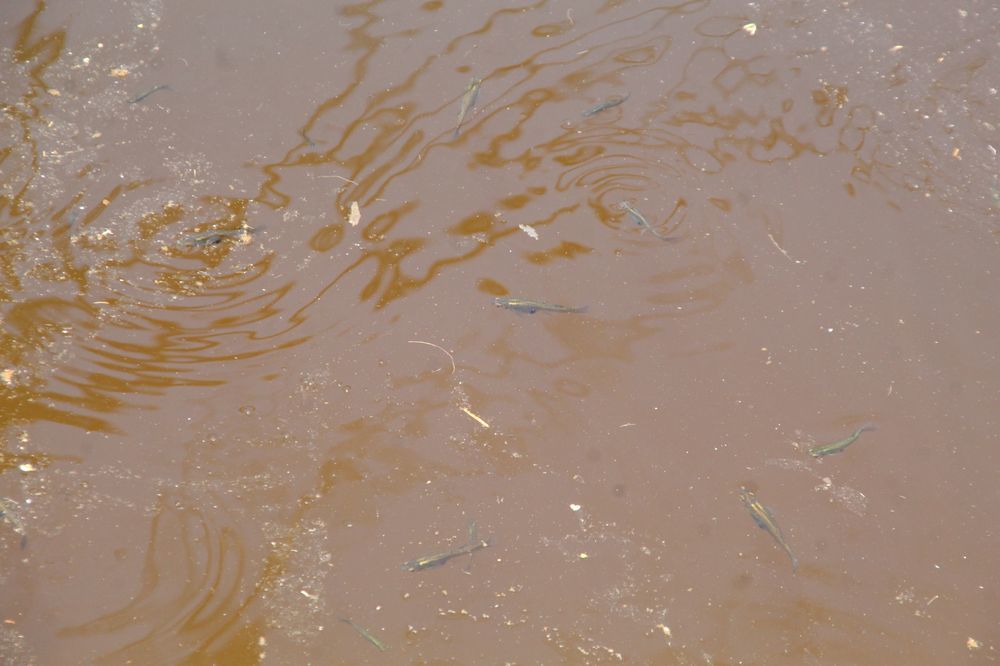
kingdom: Animalia
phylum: Chordata
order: Cyprinodontiformes
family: Poeciliidae
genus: Gambusia
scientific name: Gambusia holbrooki
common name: Eastern mosquitofish
